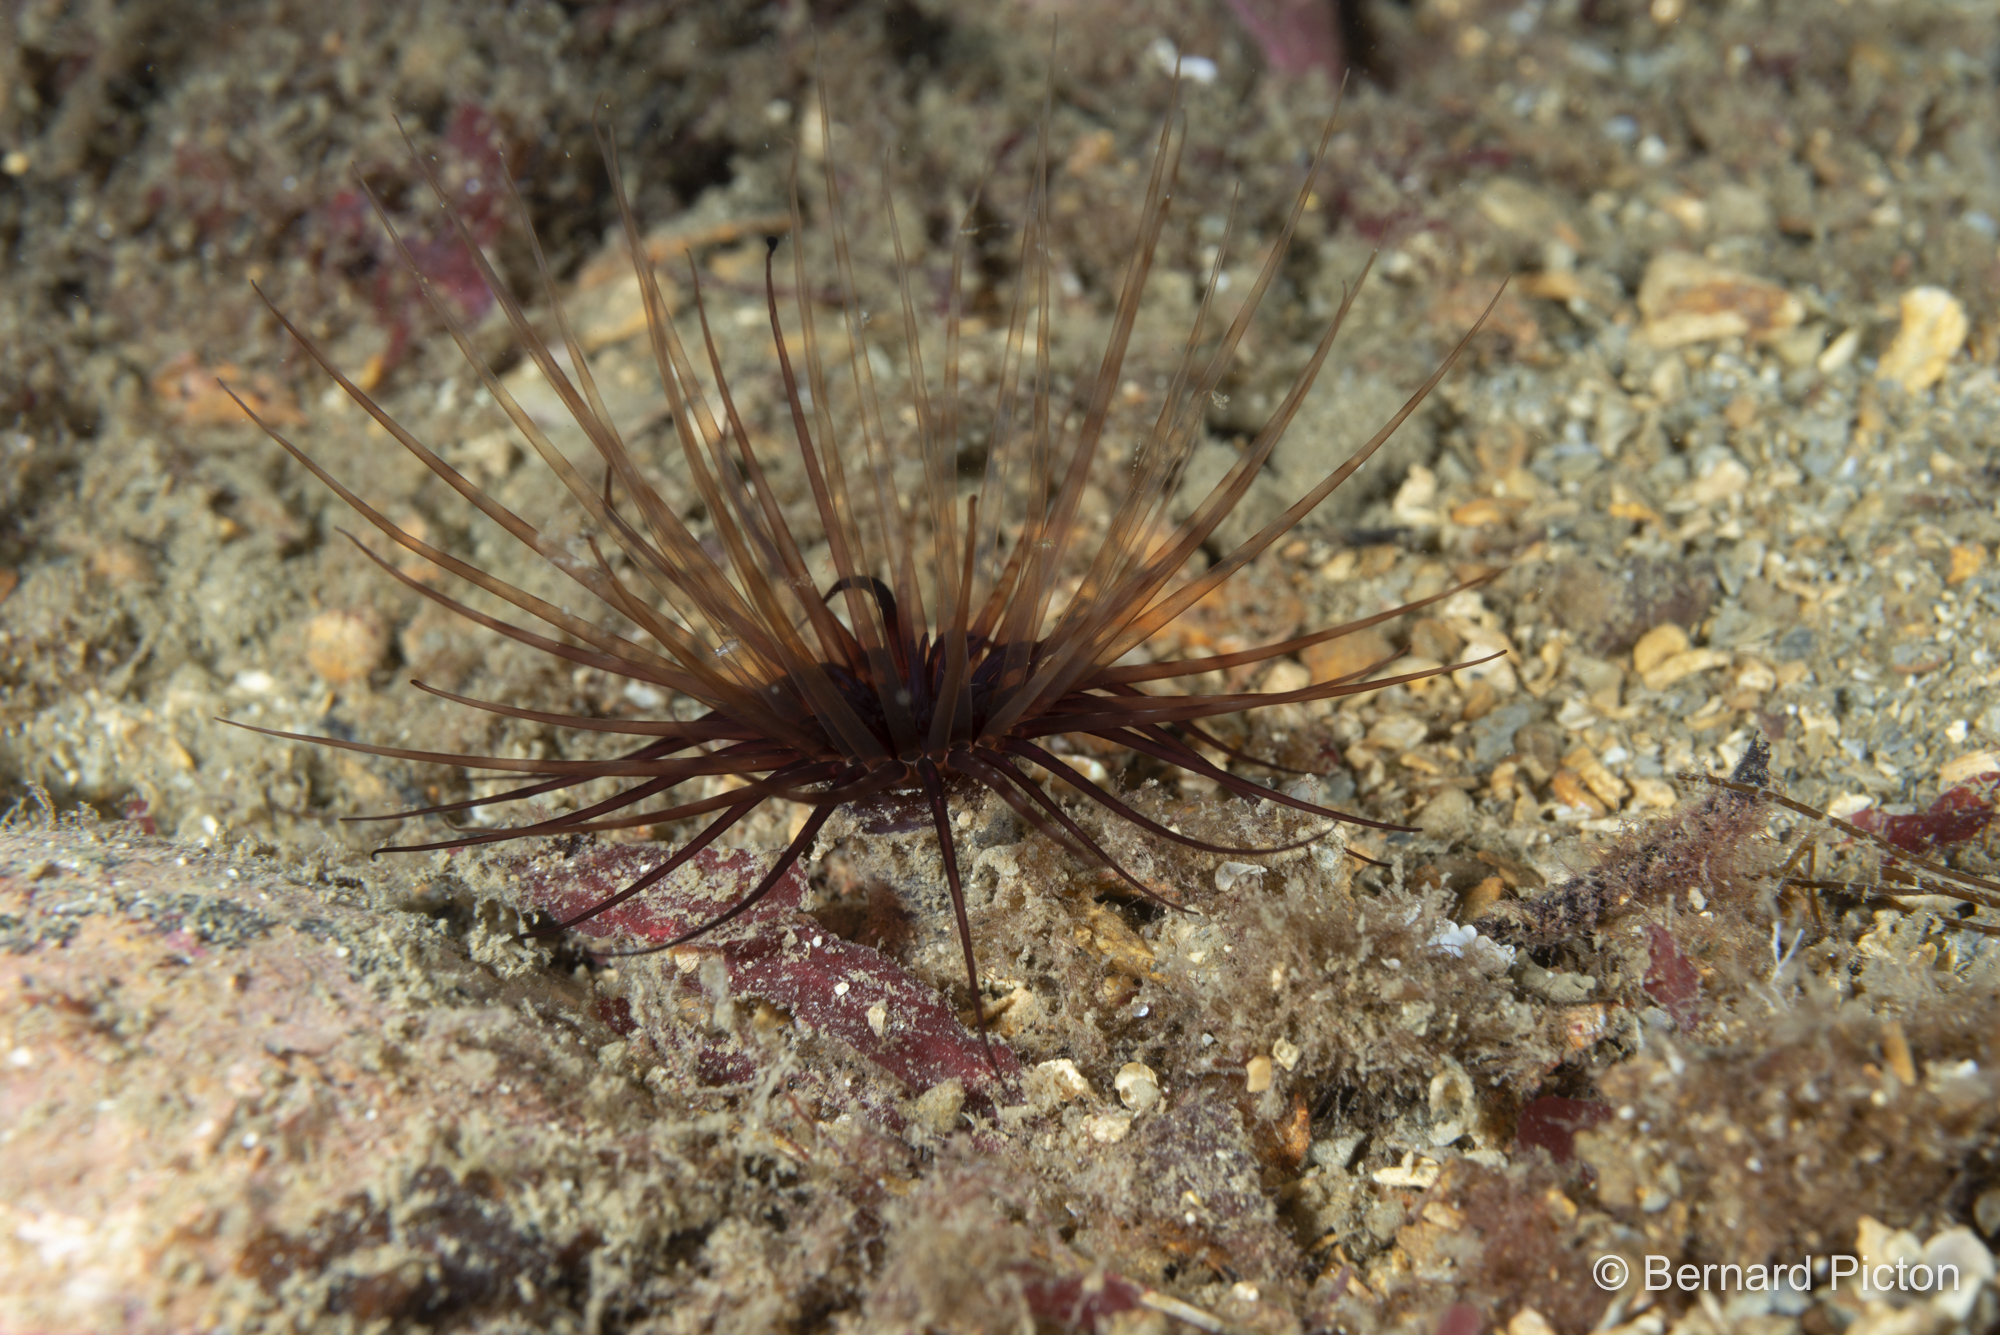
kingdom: Animalia
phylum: Cnidaria
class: Anthozoa
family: Cerianthidae
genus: Synarachnactis
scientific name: Synarachnactis
